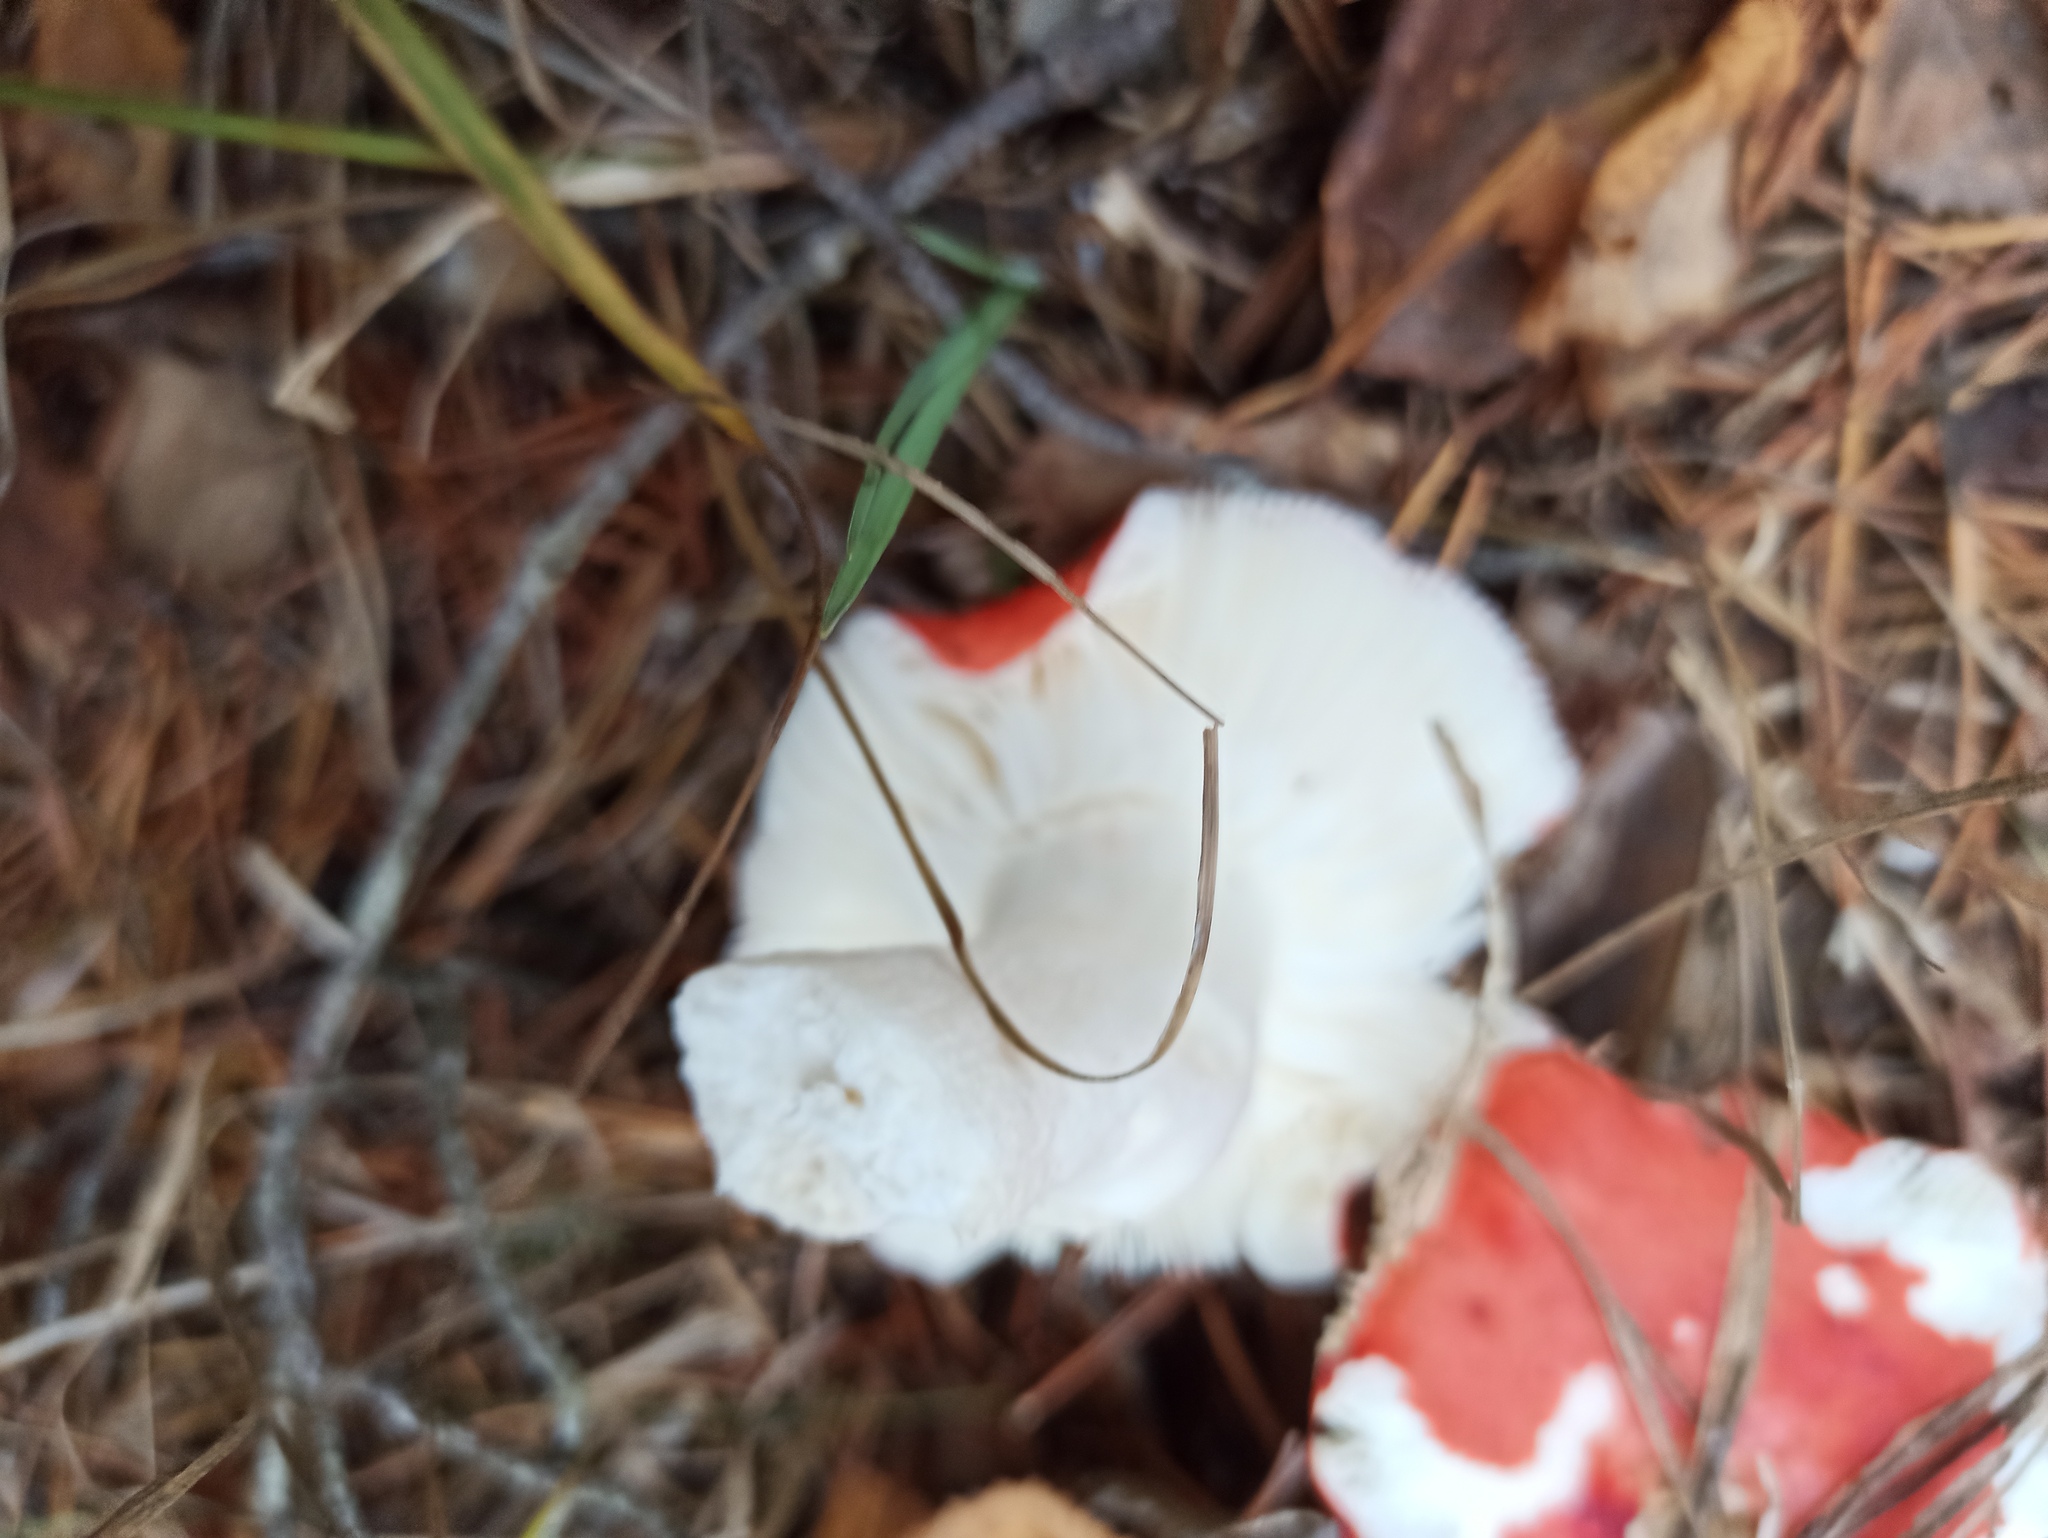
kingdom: Fungi
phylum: Basidiomycota
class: Agaricomycetes
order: Russulales
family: Russulaceae
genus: Russula
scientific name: Russula emetica
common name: Sickener
